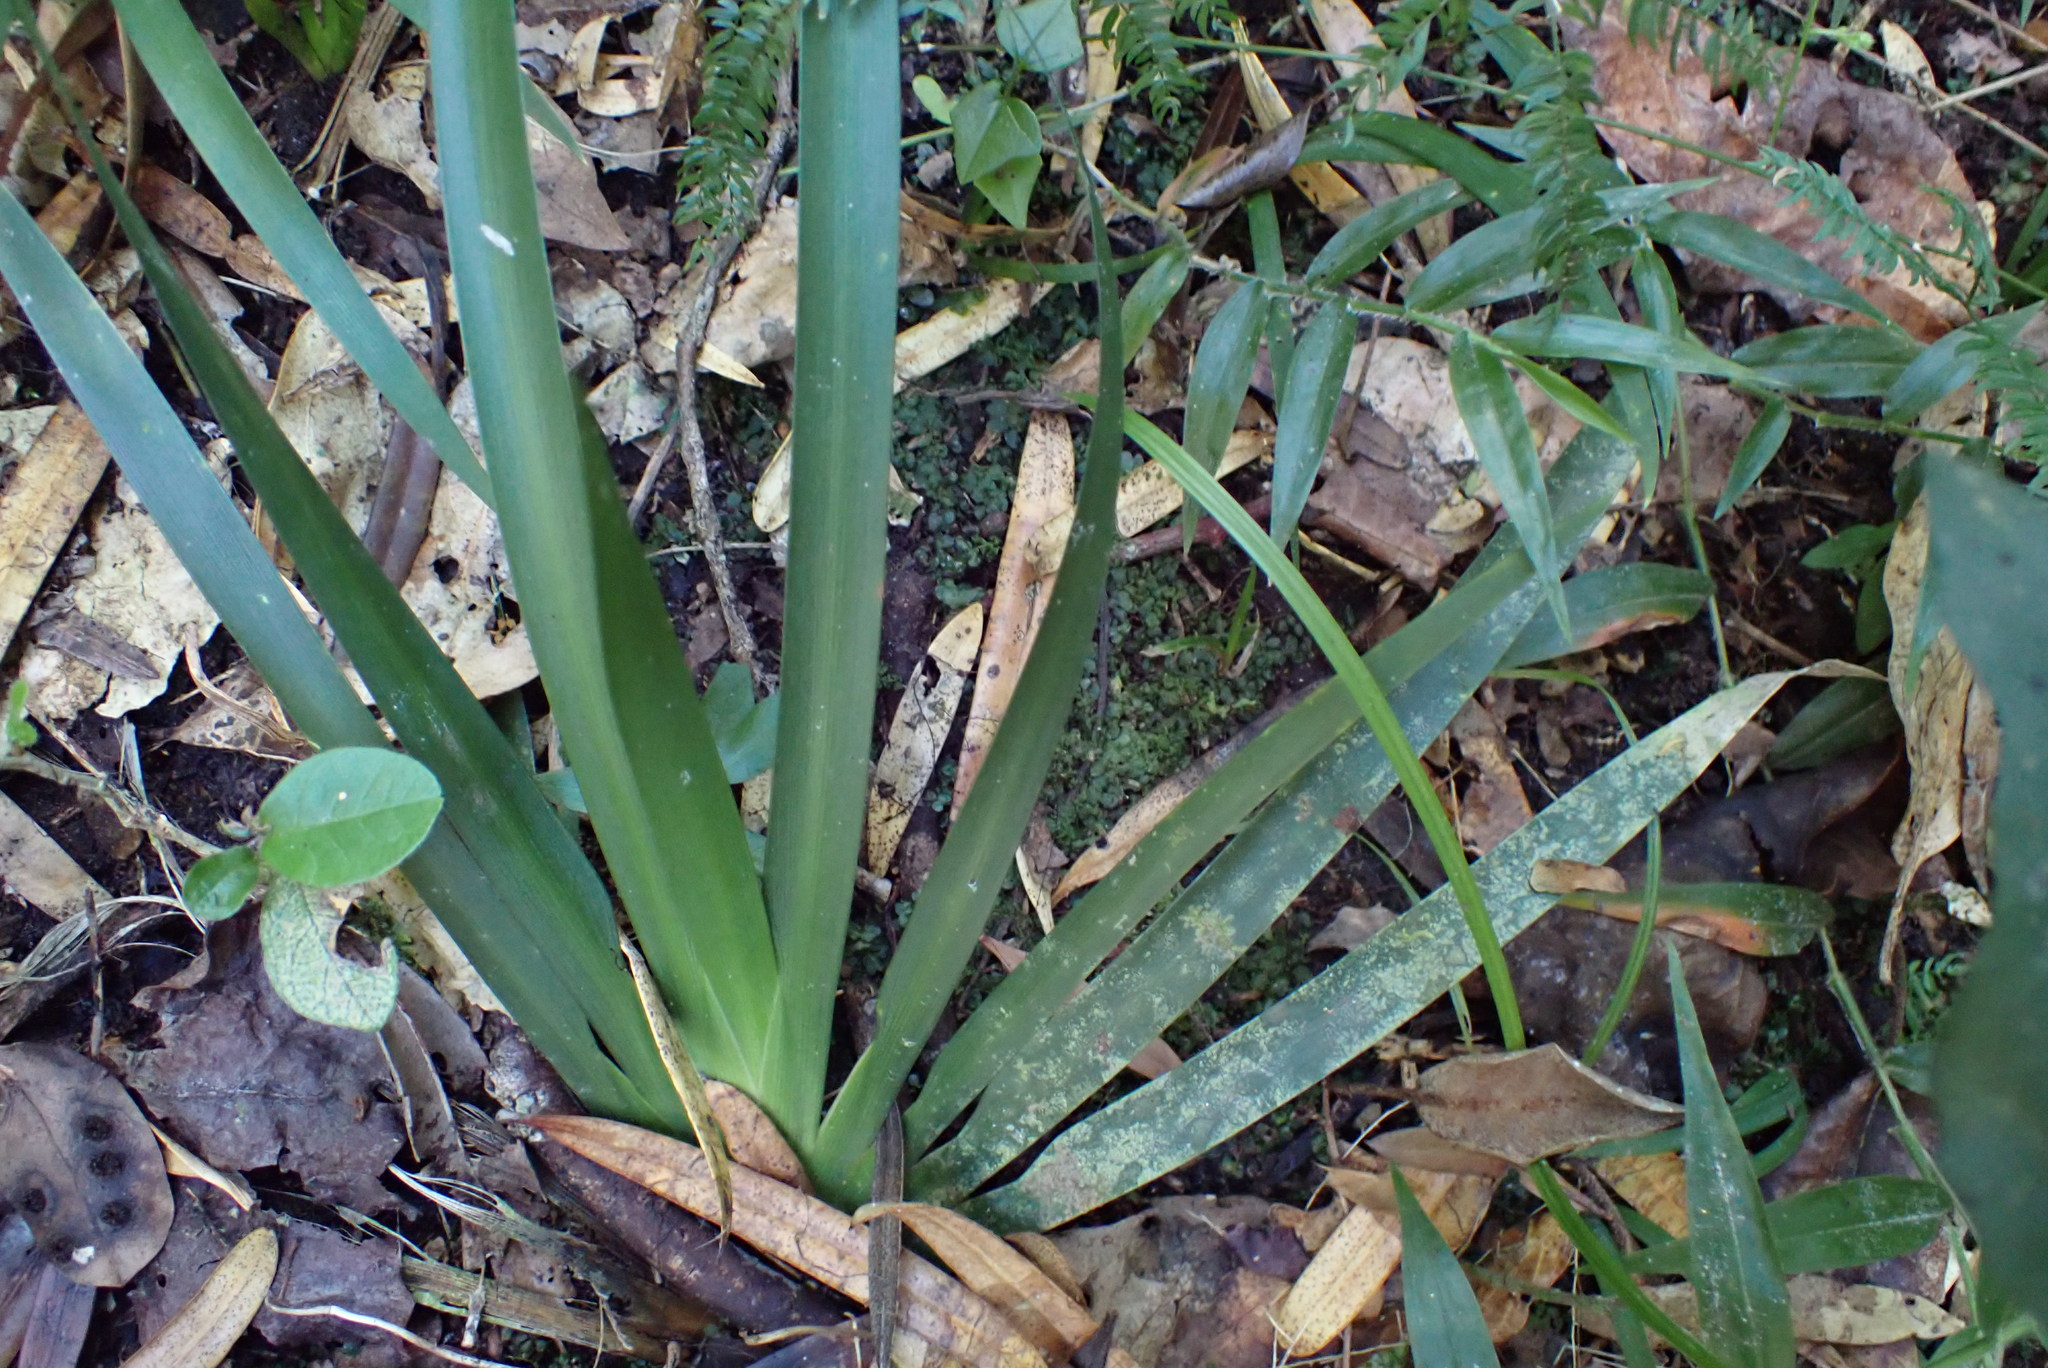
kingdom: Plantae
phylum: Tracheophyta
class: Liliopsida
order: Asparagales
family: Iridaceae
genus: Dietes
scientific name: Dietes iridioides
